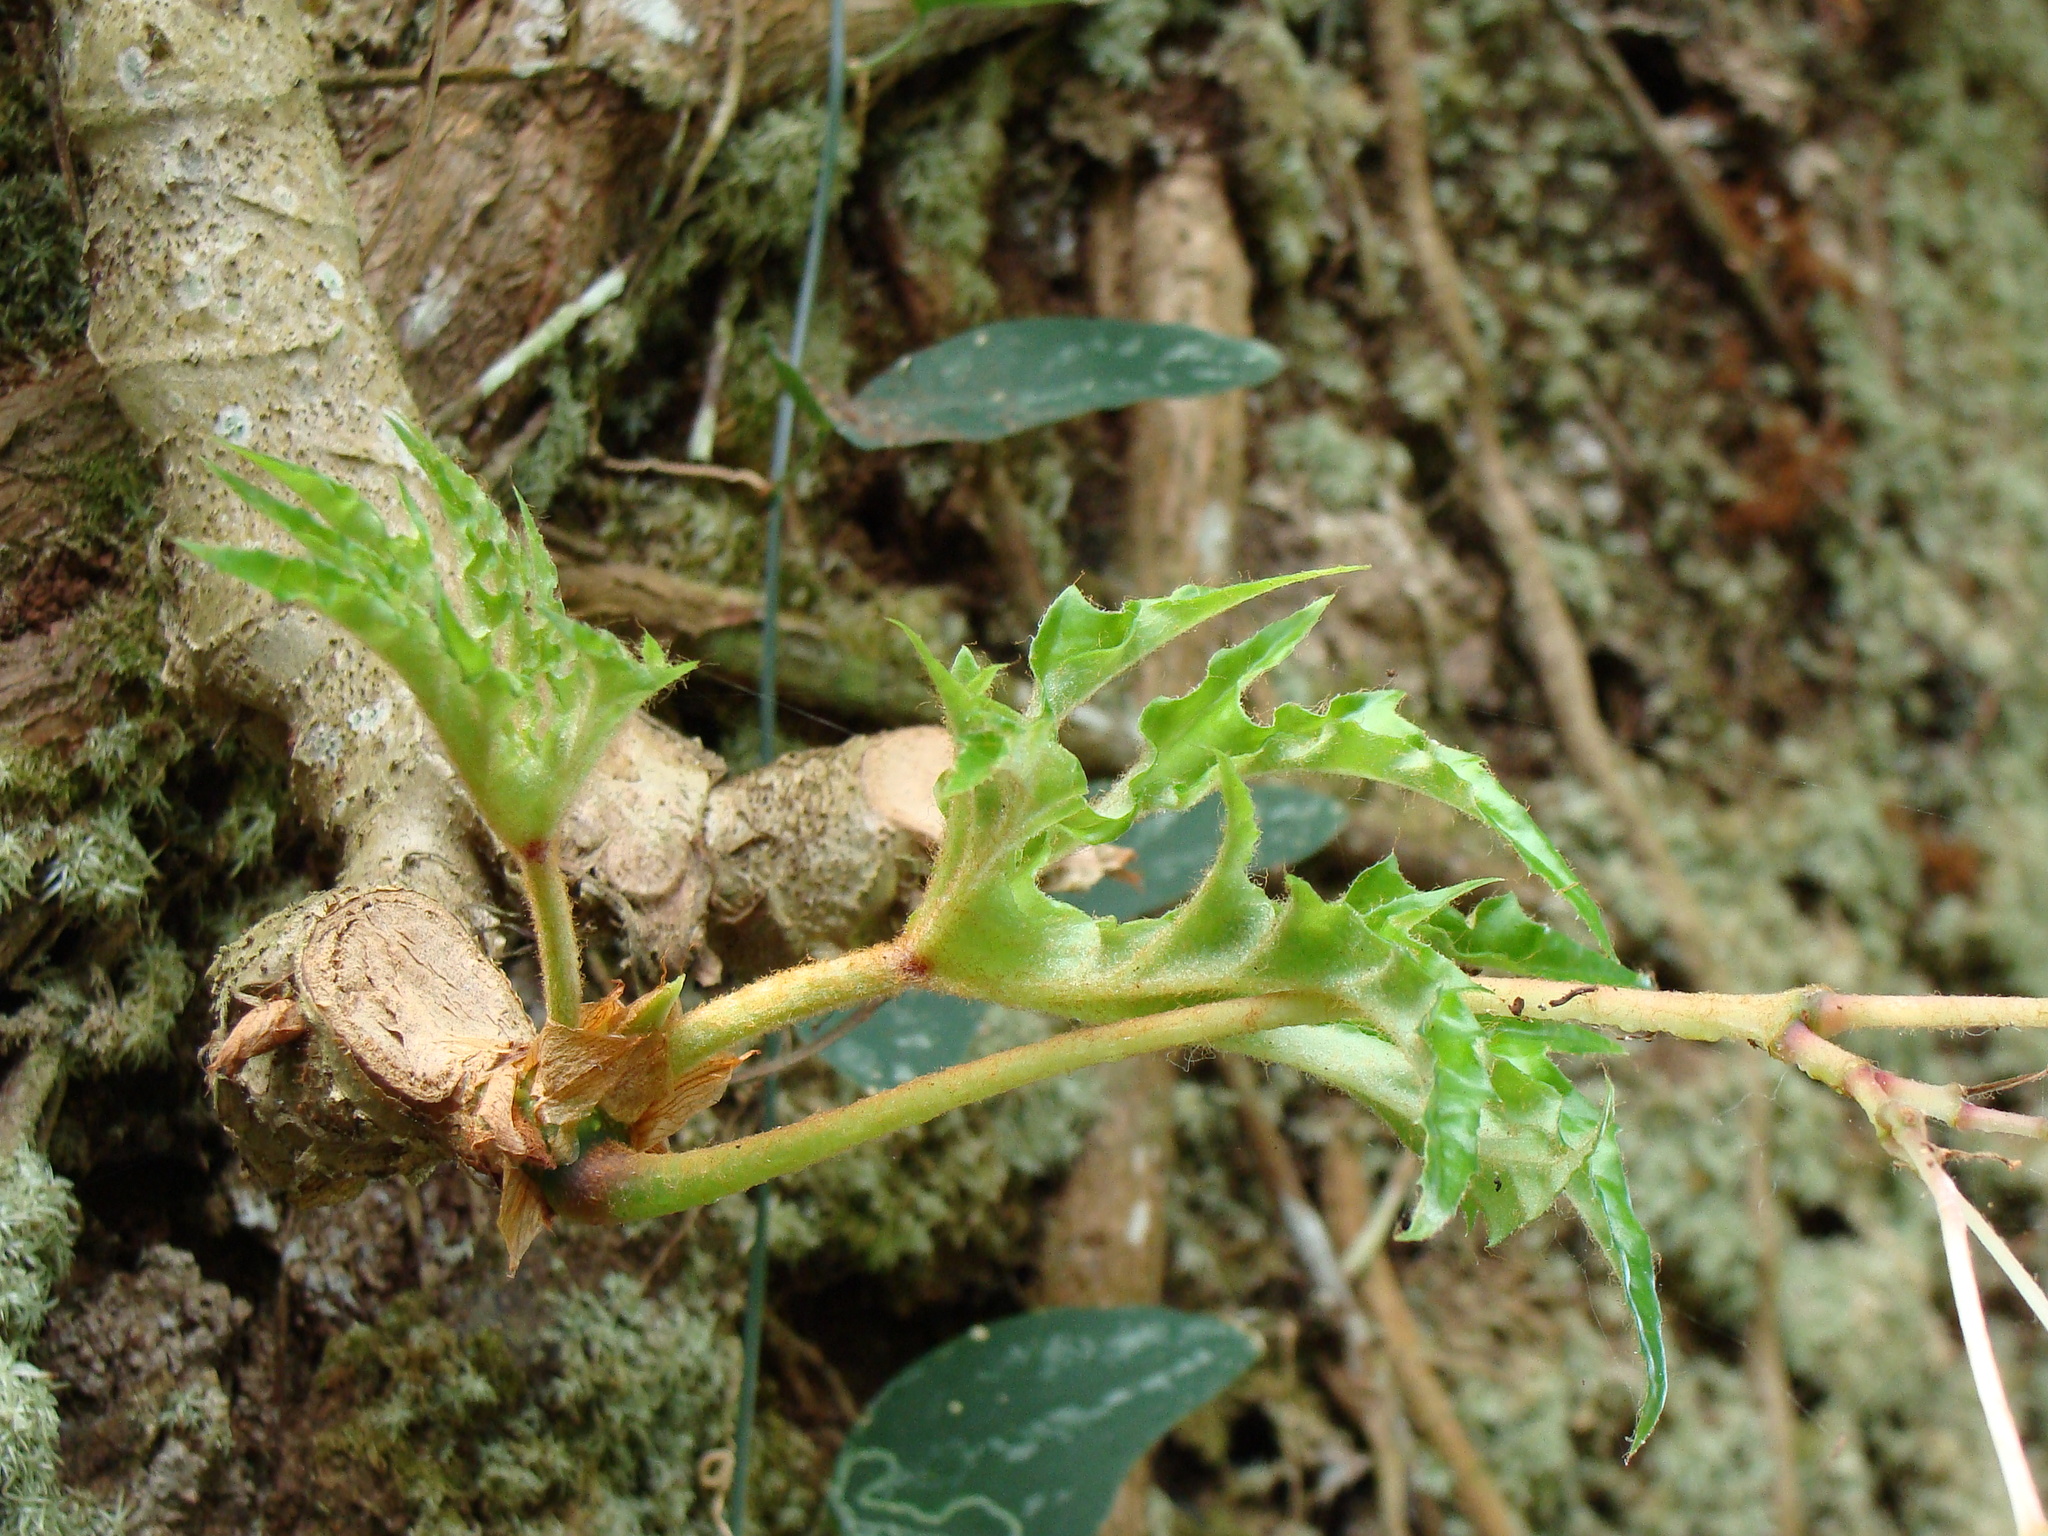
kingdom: Plantae
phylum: Tracheophyta
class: Magnoliopsida
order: Cucurbitales
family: Begoniaceae
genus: Begonia
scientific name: Begonia crassicaulis
